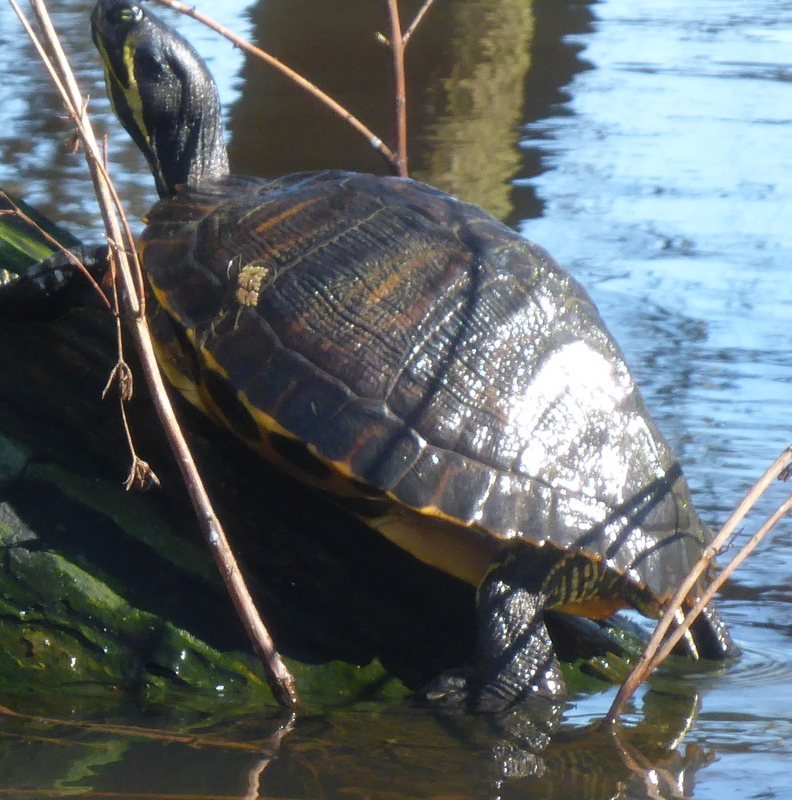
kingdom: Animalia
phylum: Chordata
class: Testudines
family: Emydidae
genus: Trachemys
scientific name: Trachemys scripta
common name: Slider
